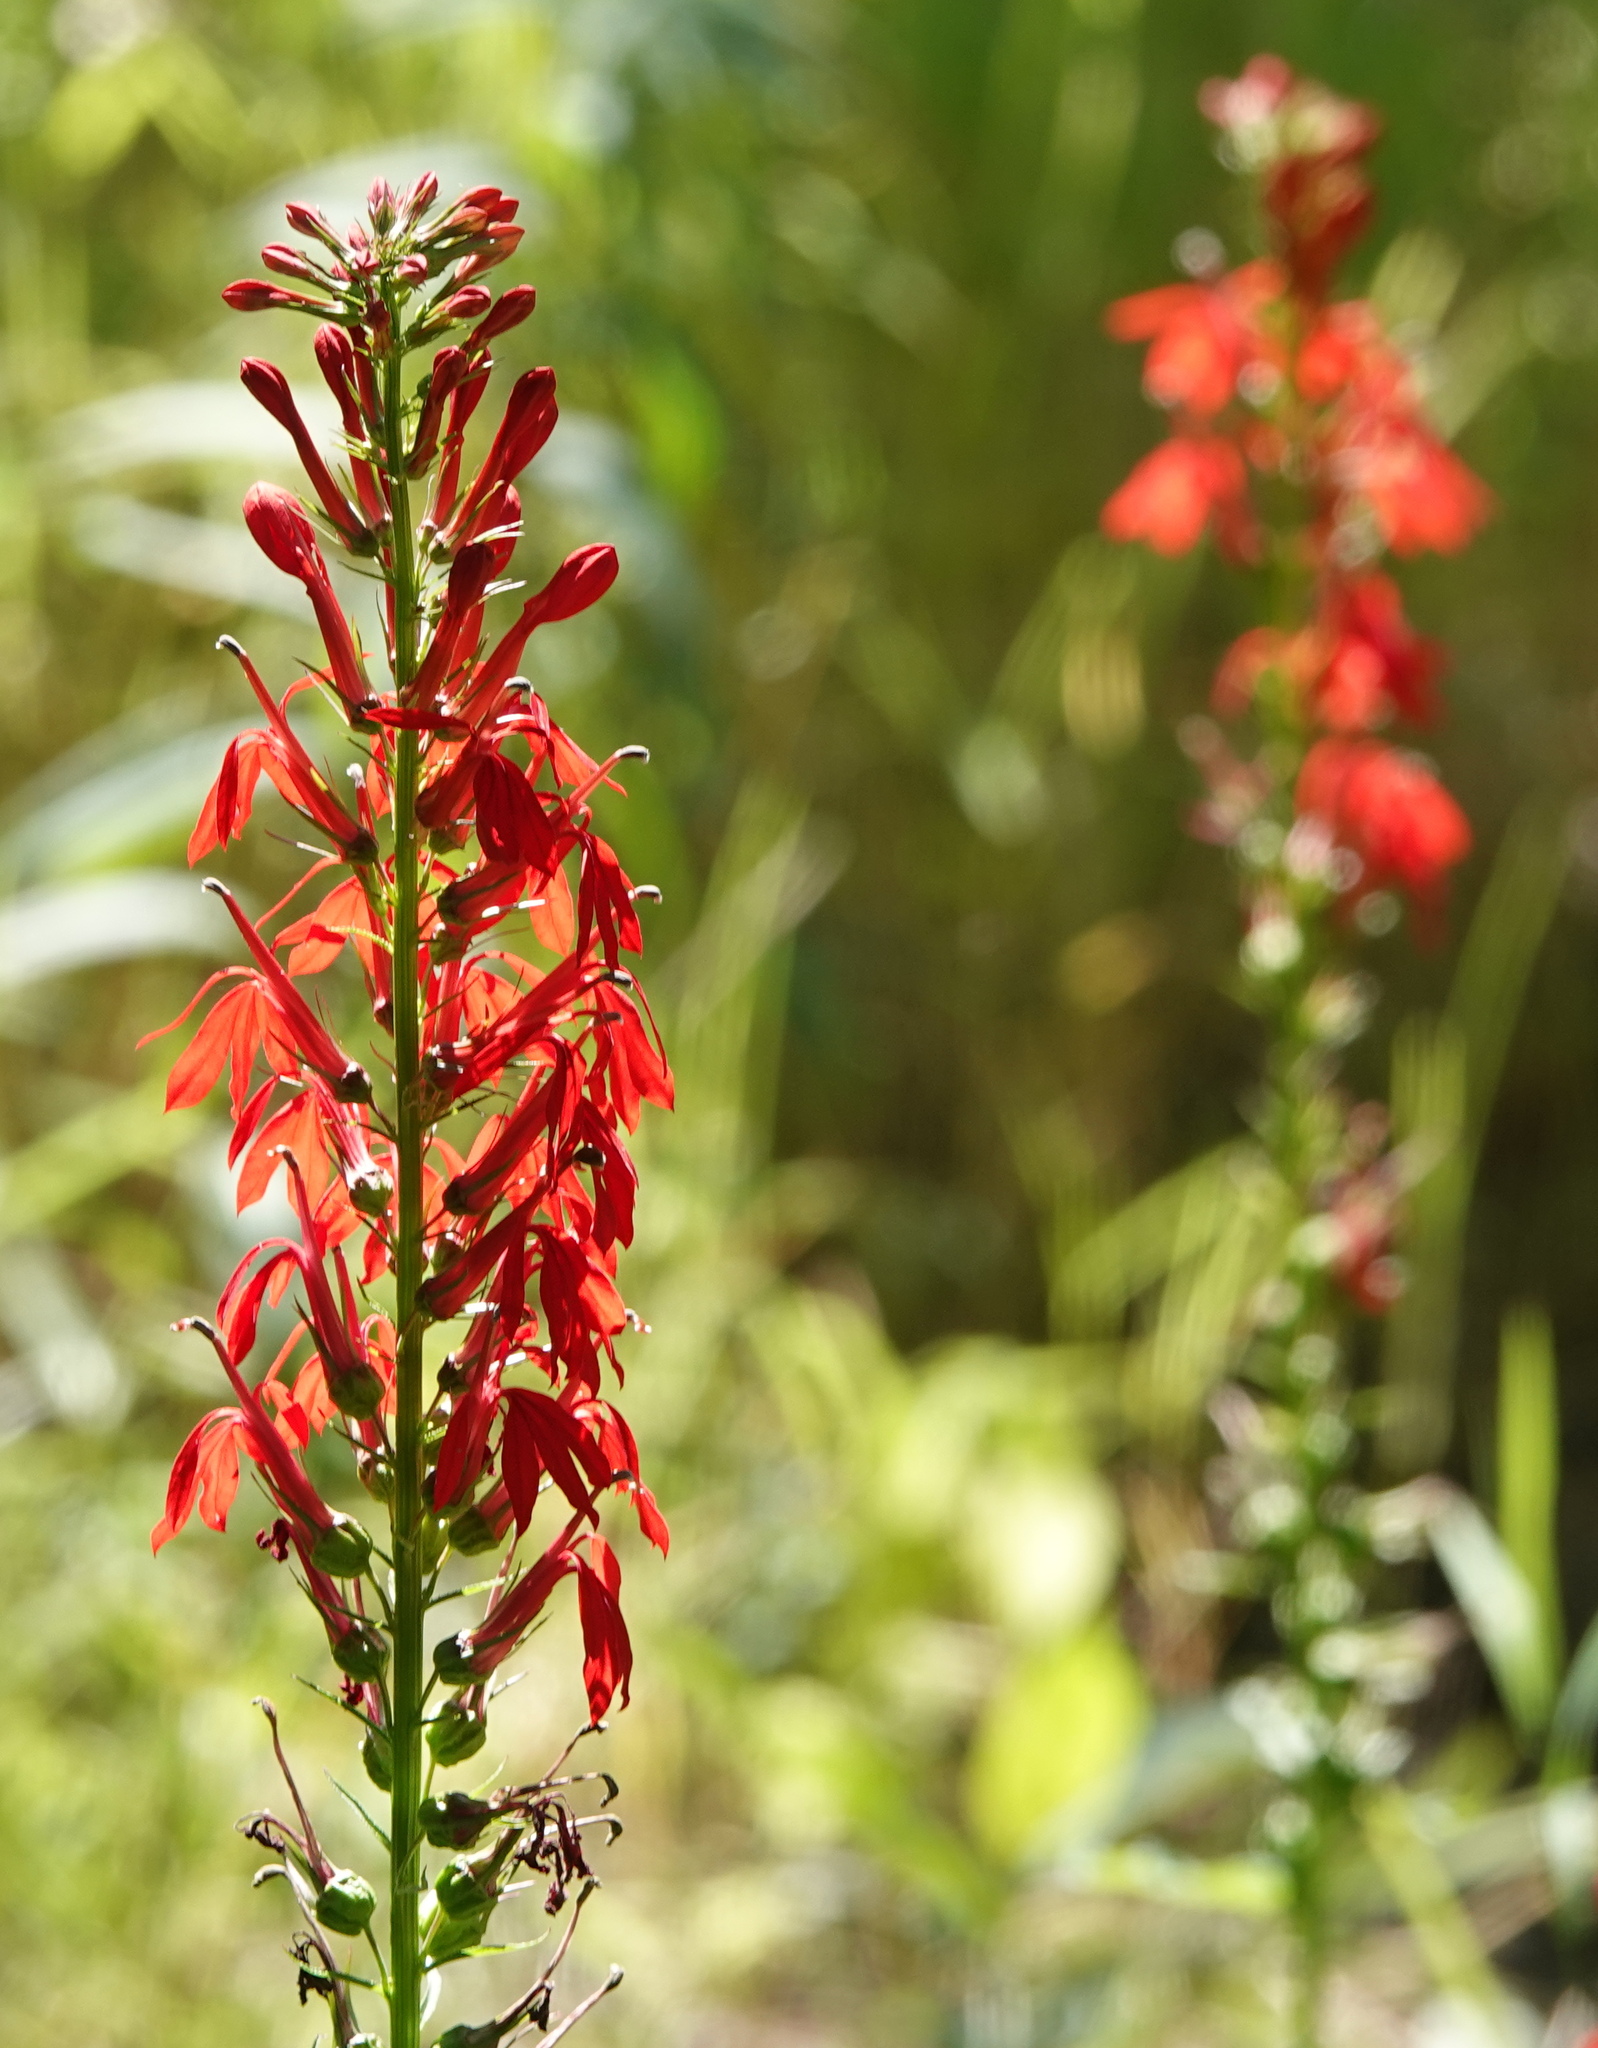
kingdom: Plantae
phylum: Tracheophyta
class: Magnoliopsida
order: Asterales
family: Campanulaceae
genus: Lobelia
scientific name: Lobelia cardinalis
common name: Cardinal flower
